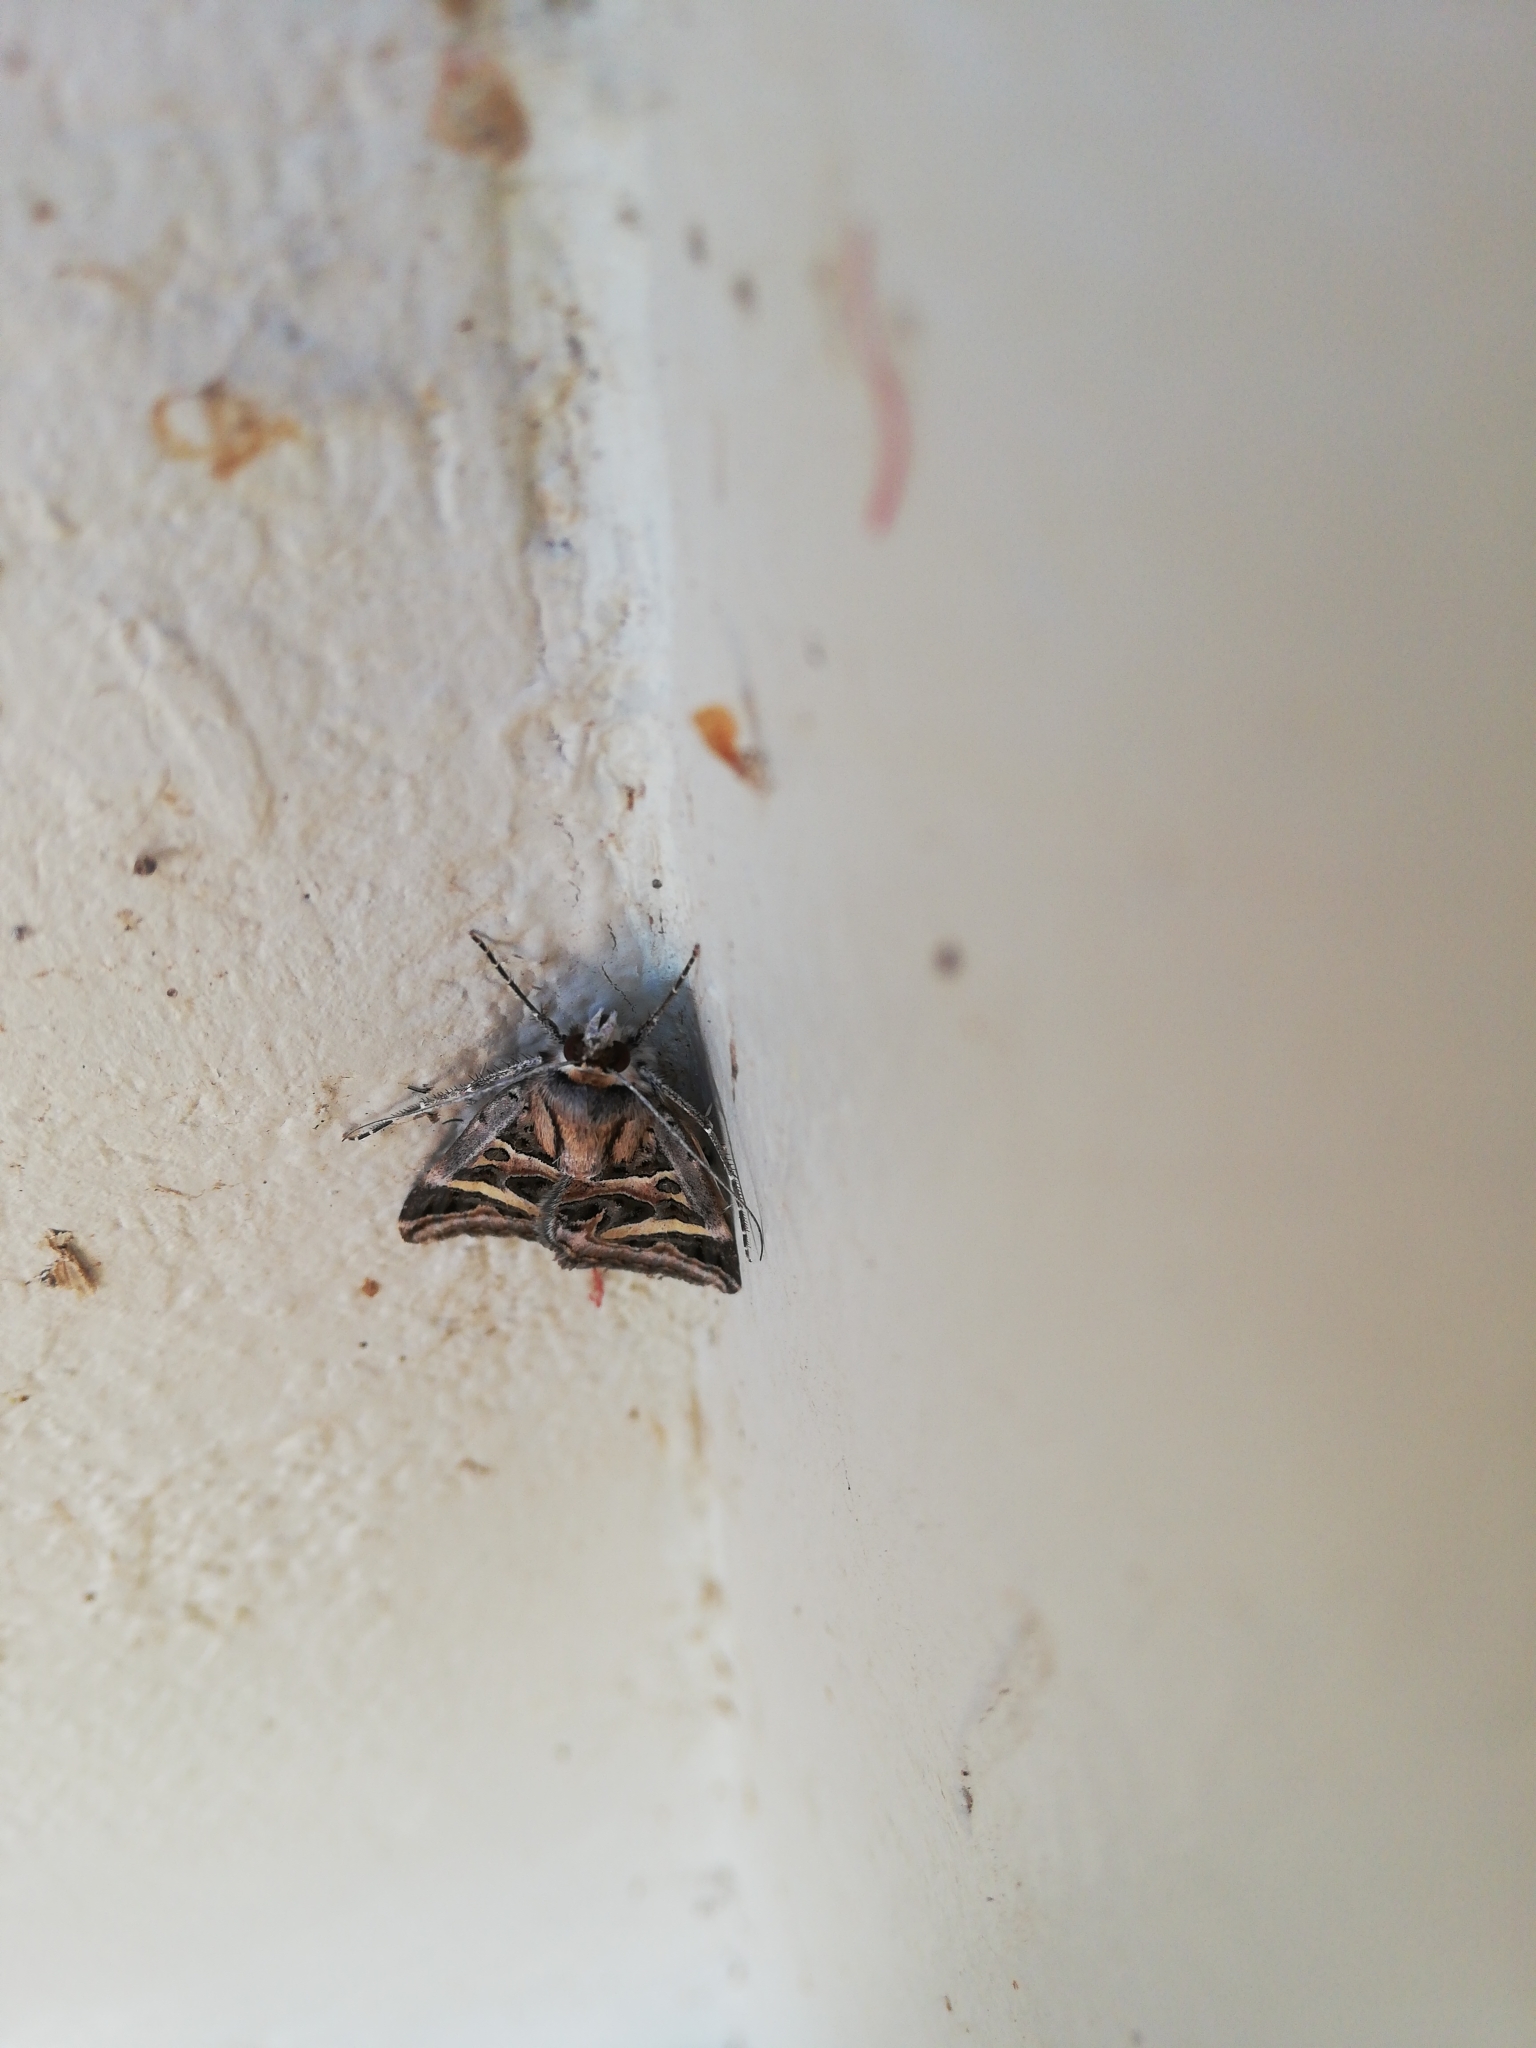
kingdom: Animalia
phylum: Arthropoda
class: Insecta
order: Lepidoptera
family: Erebidae
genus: Cerocala
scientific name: Cerocala vermiculosa
